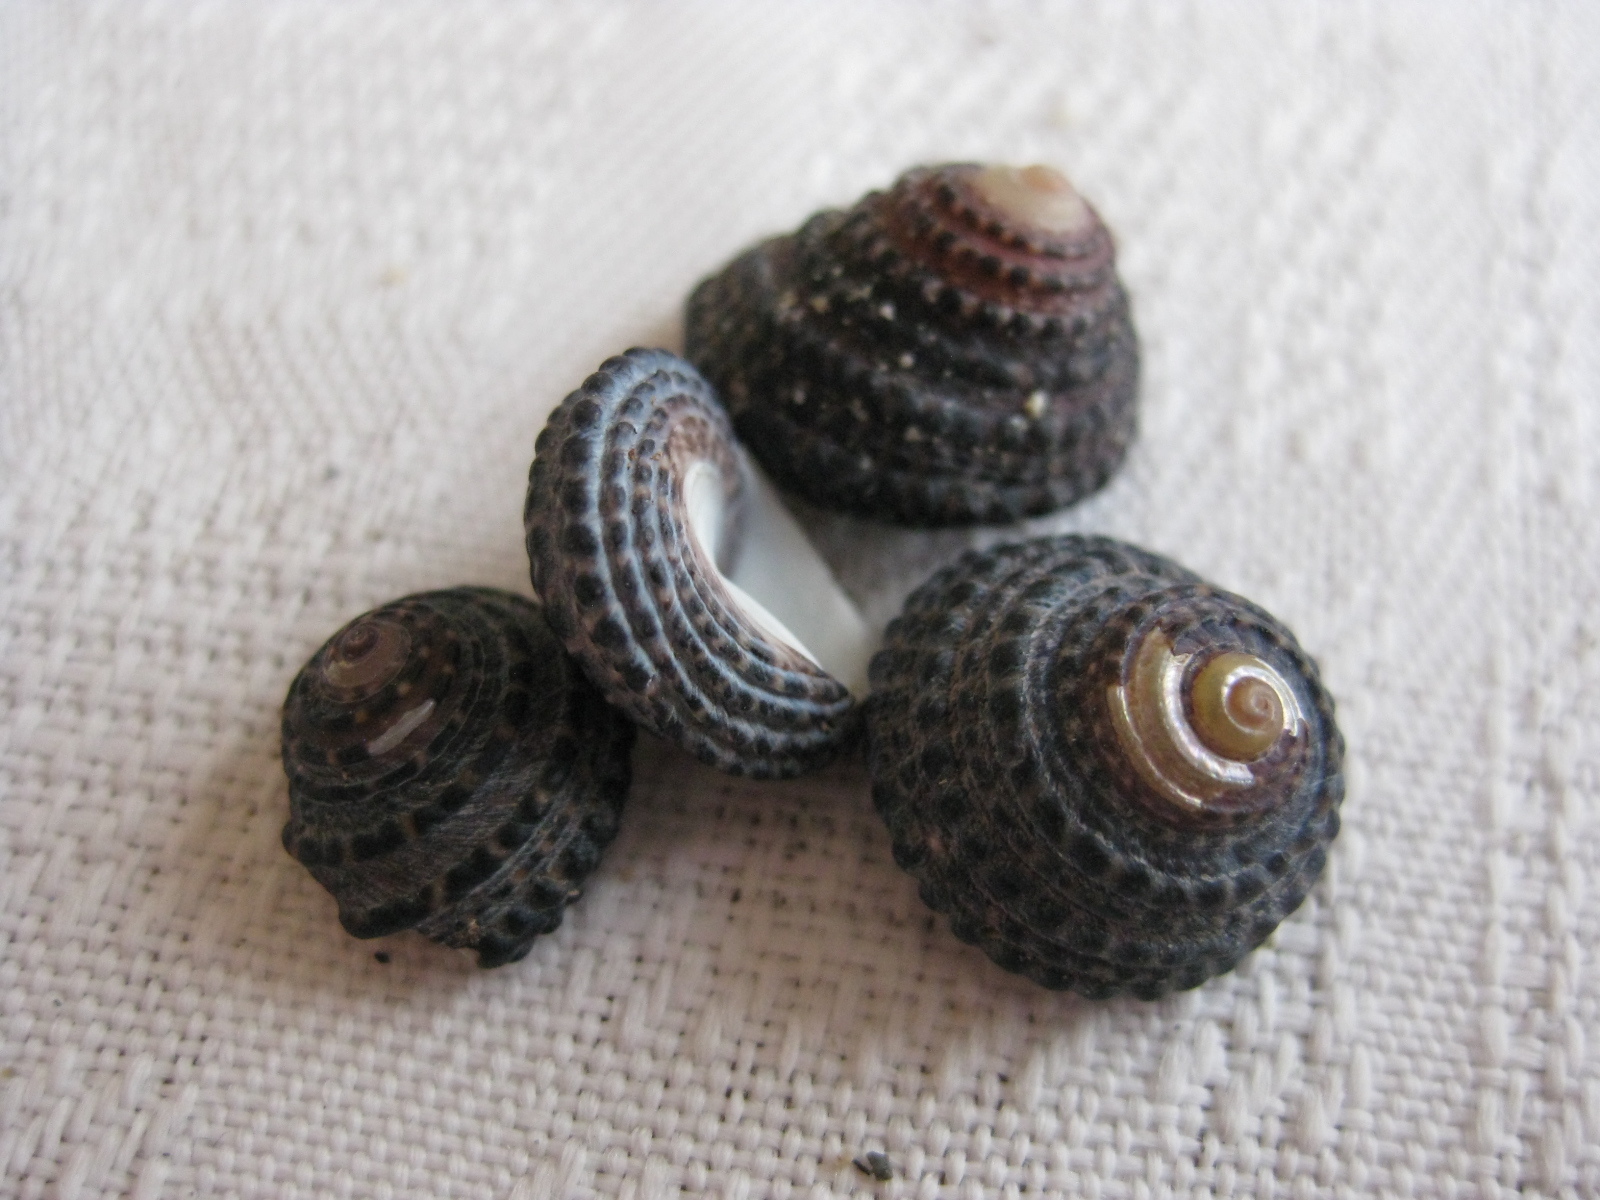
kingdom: Animalia
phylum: Mollusca
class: Gastropoda
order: Trochida
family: Trochidae
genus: Diloma
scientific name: Diloma bicanaliculatum
